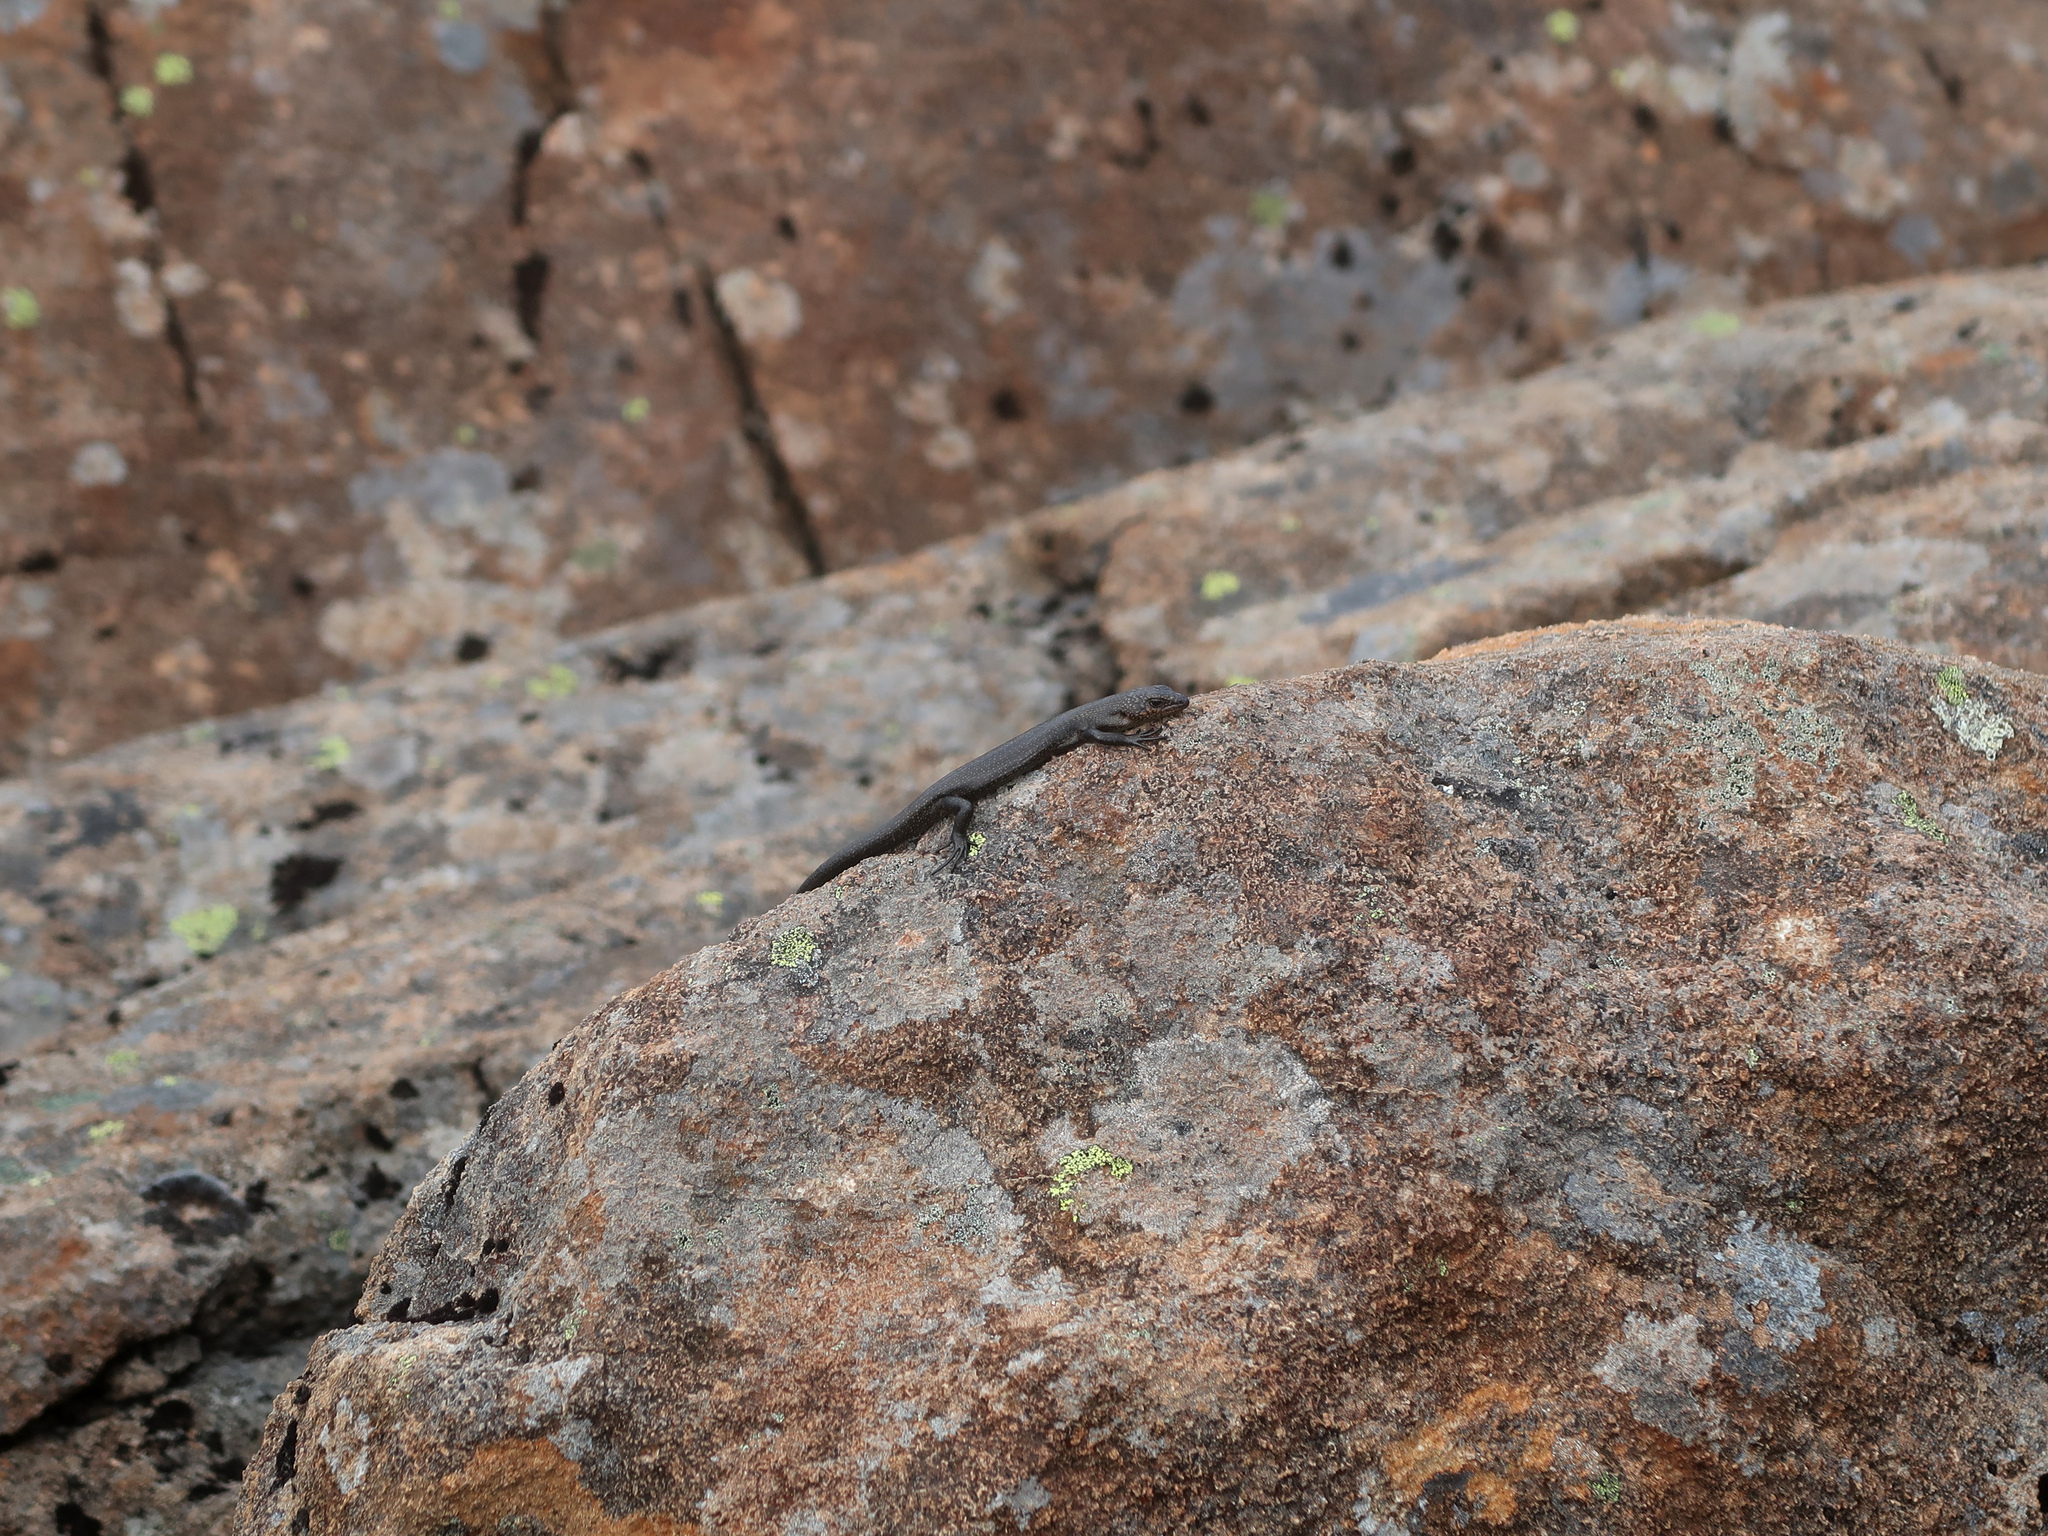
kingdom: Animalia
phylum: Chordata
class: Squamata
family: Scincidae
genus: Carinascincus
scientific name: Carinascincus greeni
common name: Alpine cool-skink
